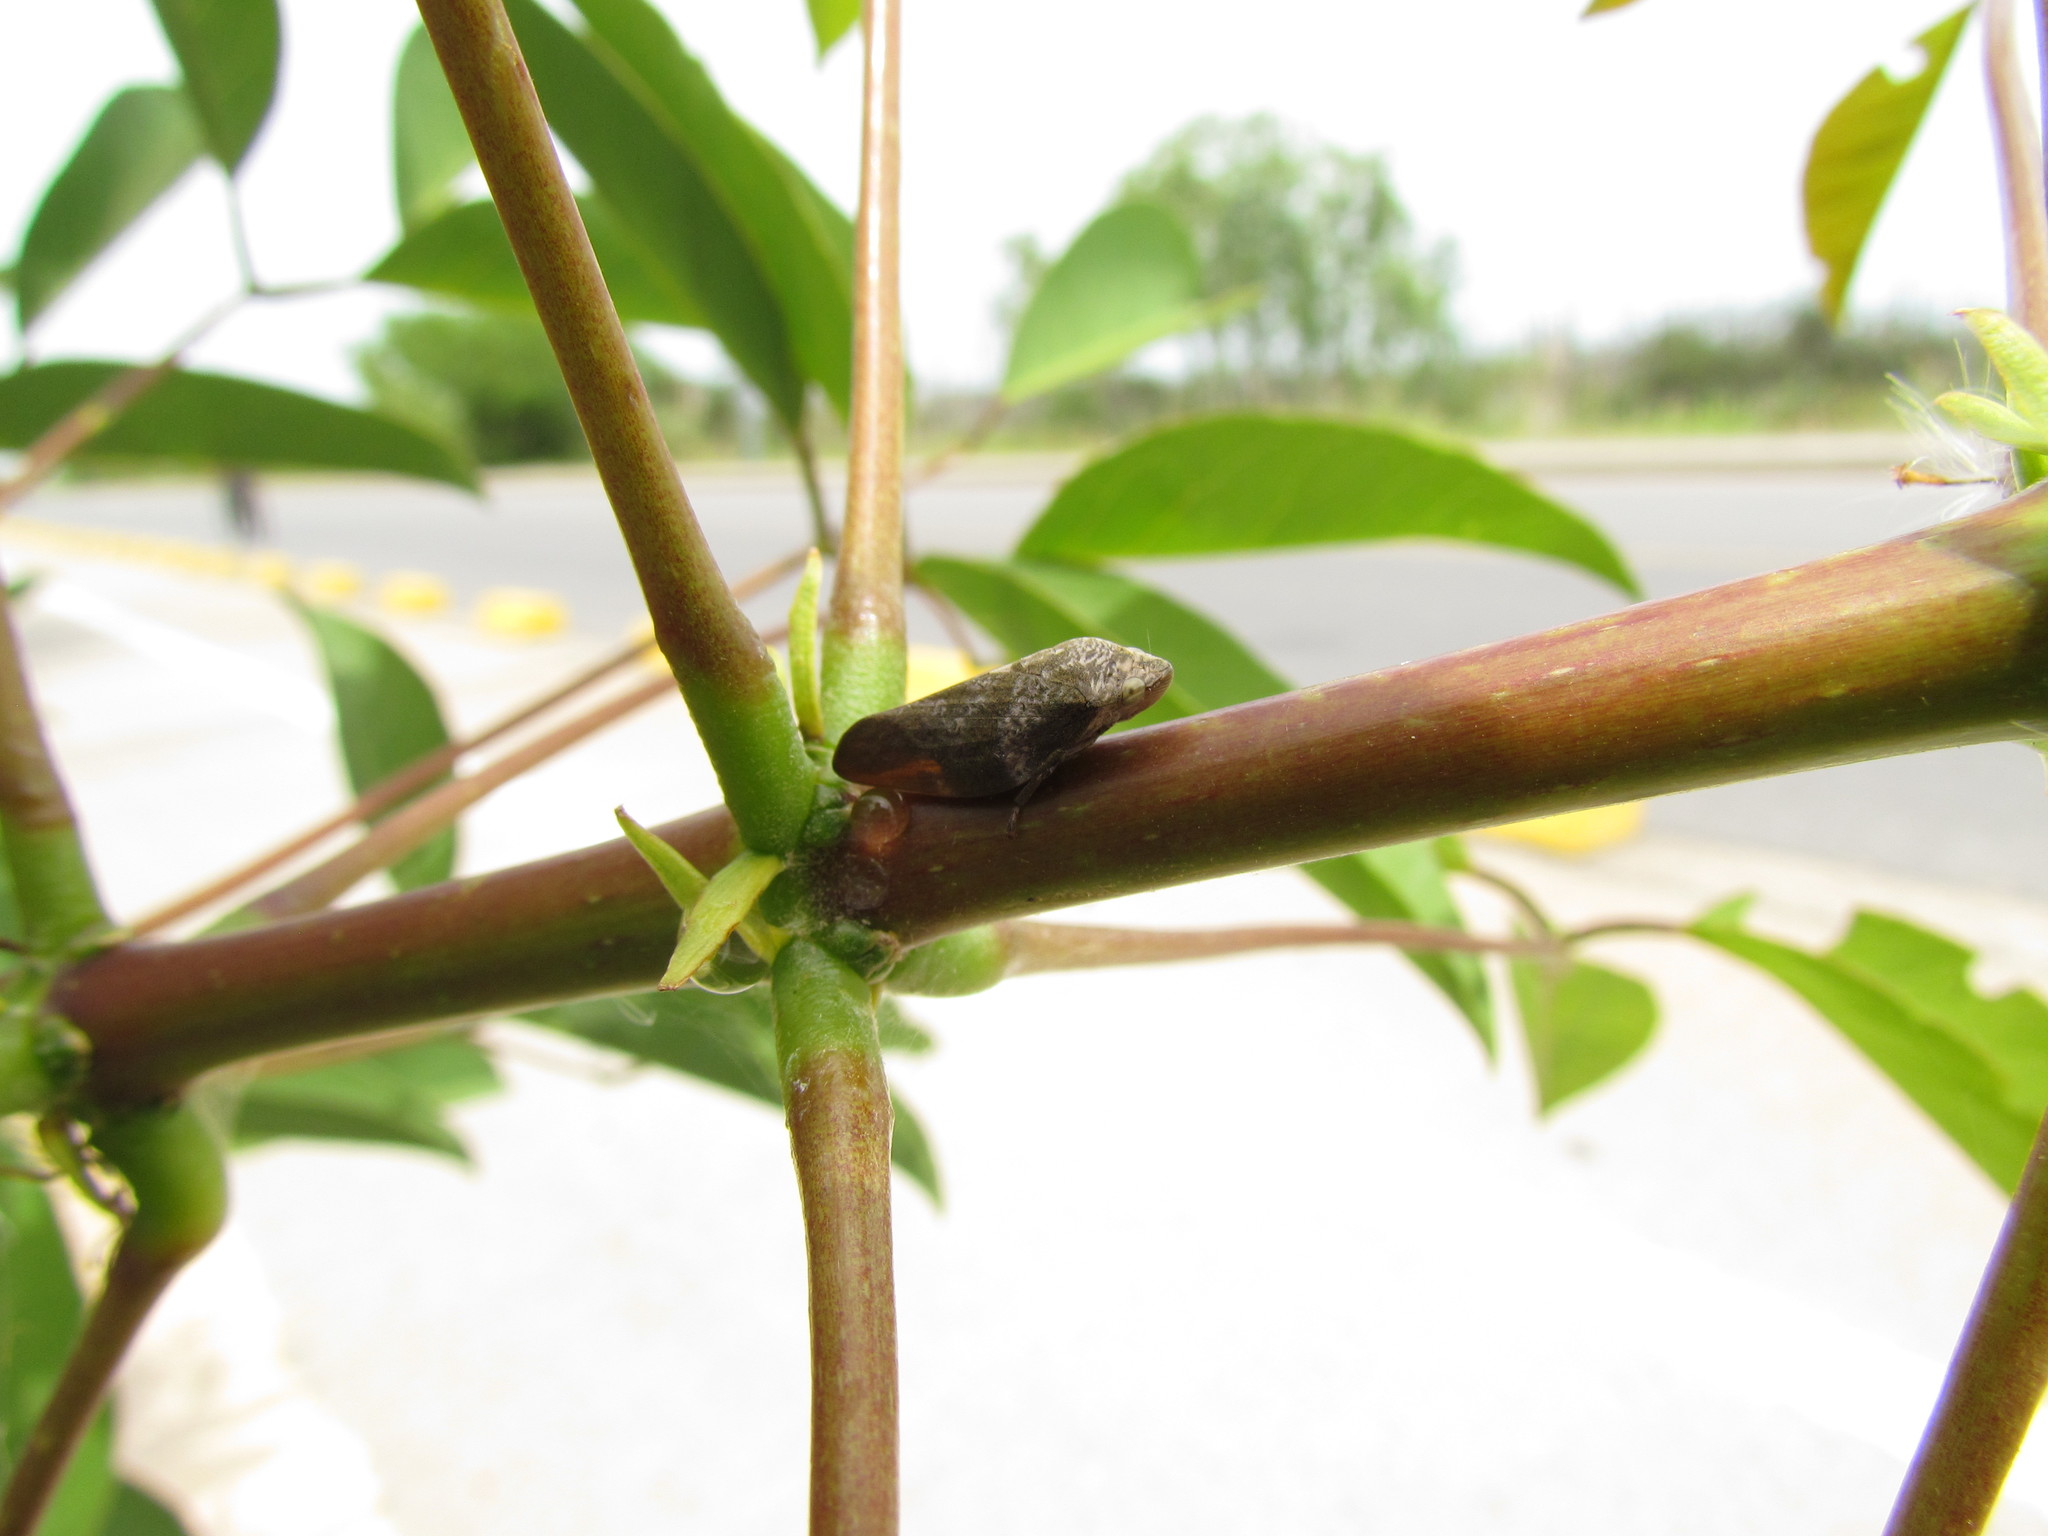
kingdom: Animalia
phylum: Arthropoda
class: Insecta
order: Hemiptera
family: Aphrophoridae
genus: Cephisus
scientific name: Cephisus siccifolius
